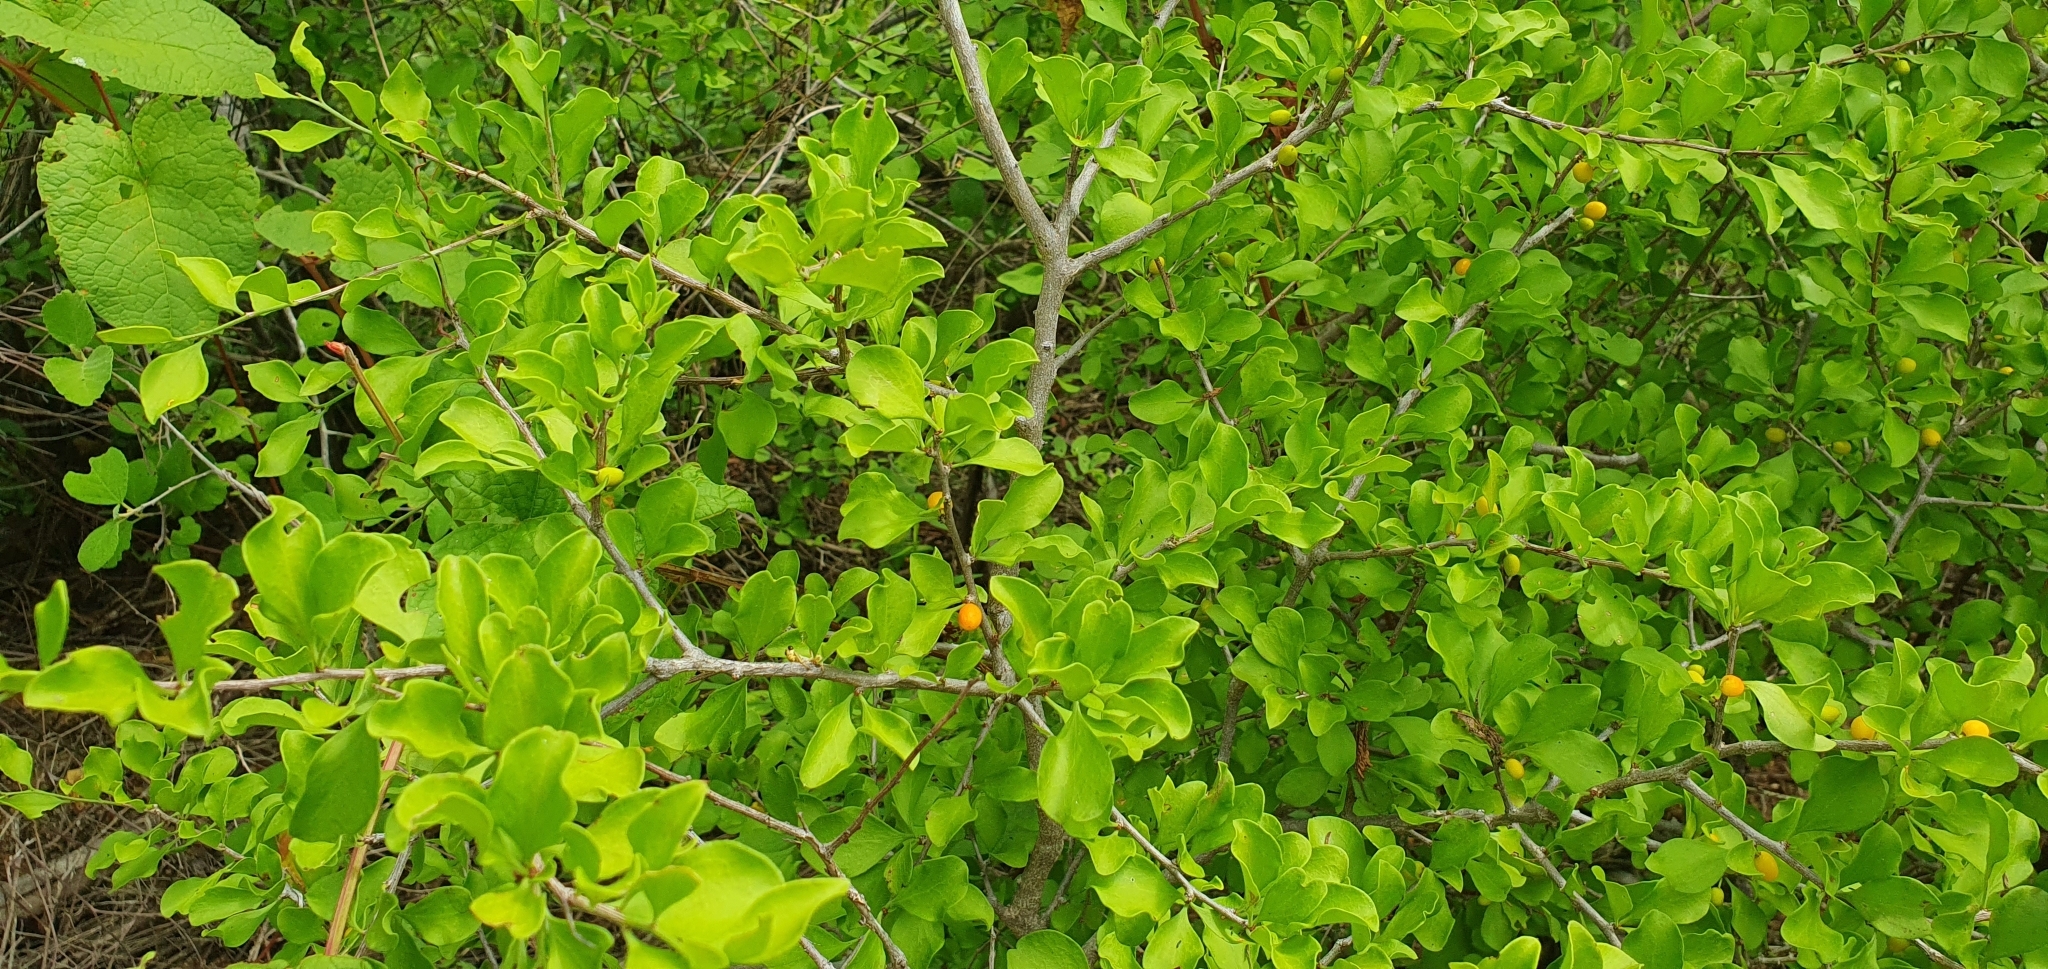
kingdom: Plantae
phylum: Tracheophyta
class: Magnoliopsida
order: Celastrales
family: Celastraceae
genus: Schaefferia
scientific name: Schaefferia pilosa
